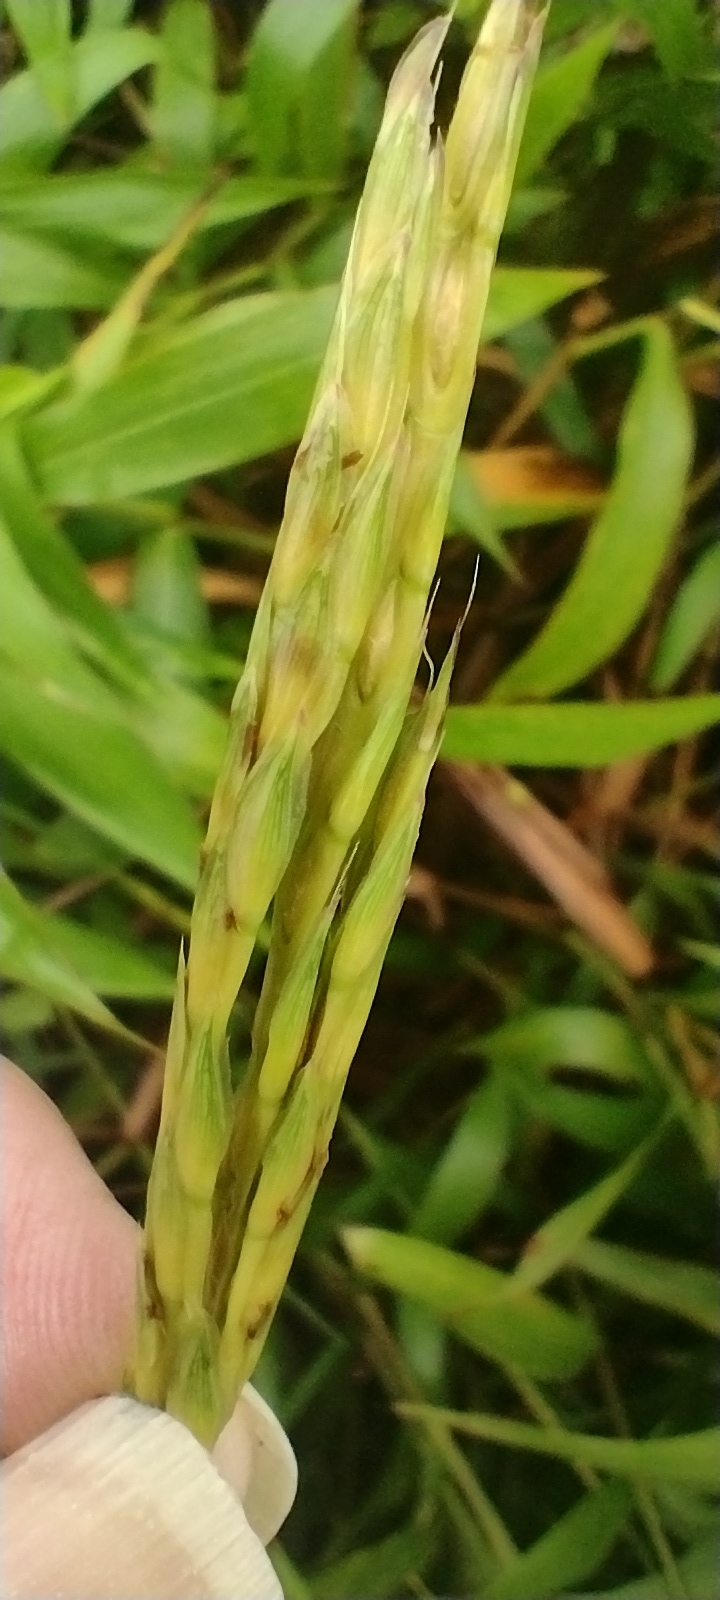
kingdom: Plantae
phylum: Tracheophyta
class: Liliopsida
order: Poales
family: Poaceae
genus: Ischaemum
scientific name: Ischaemum polystachyum
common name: Paddle grass
